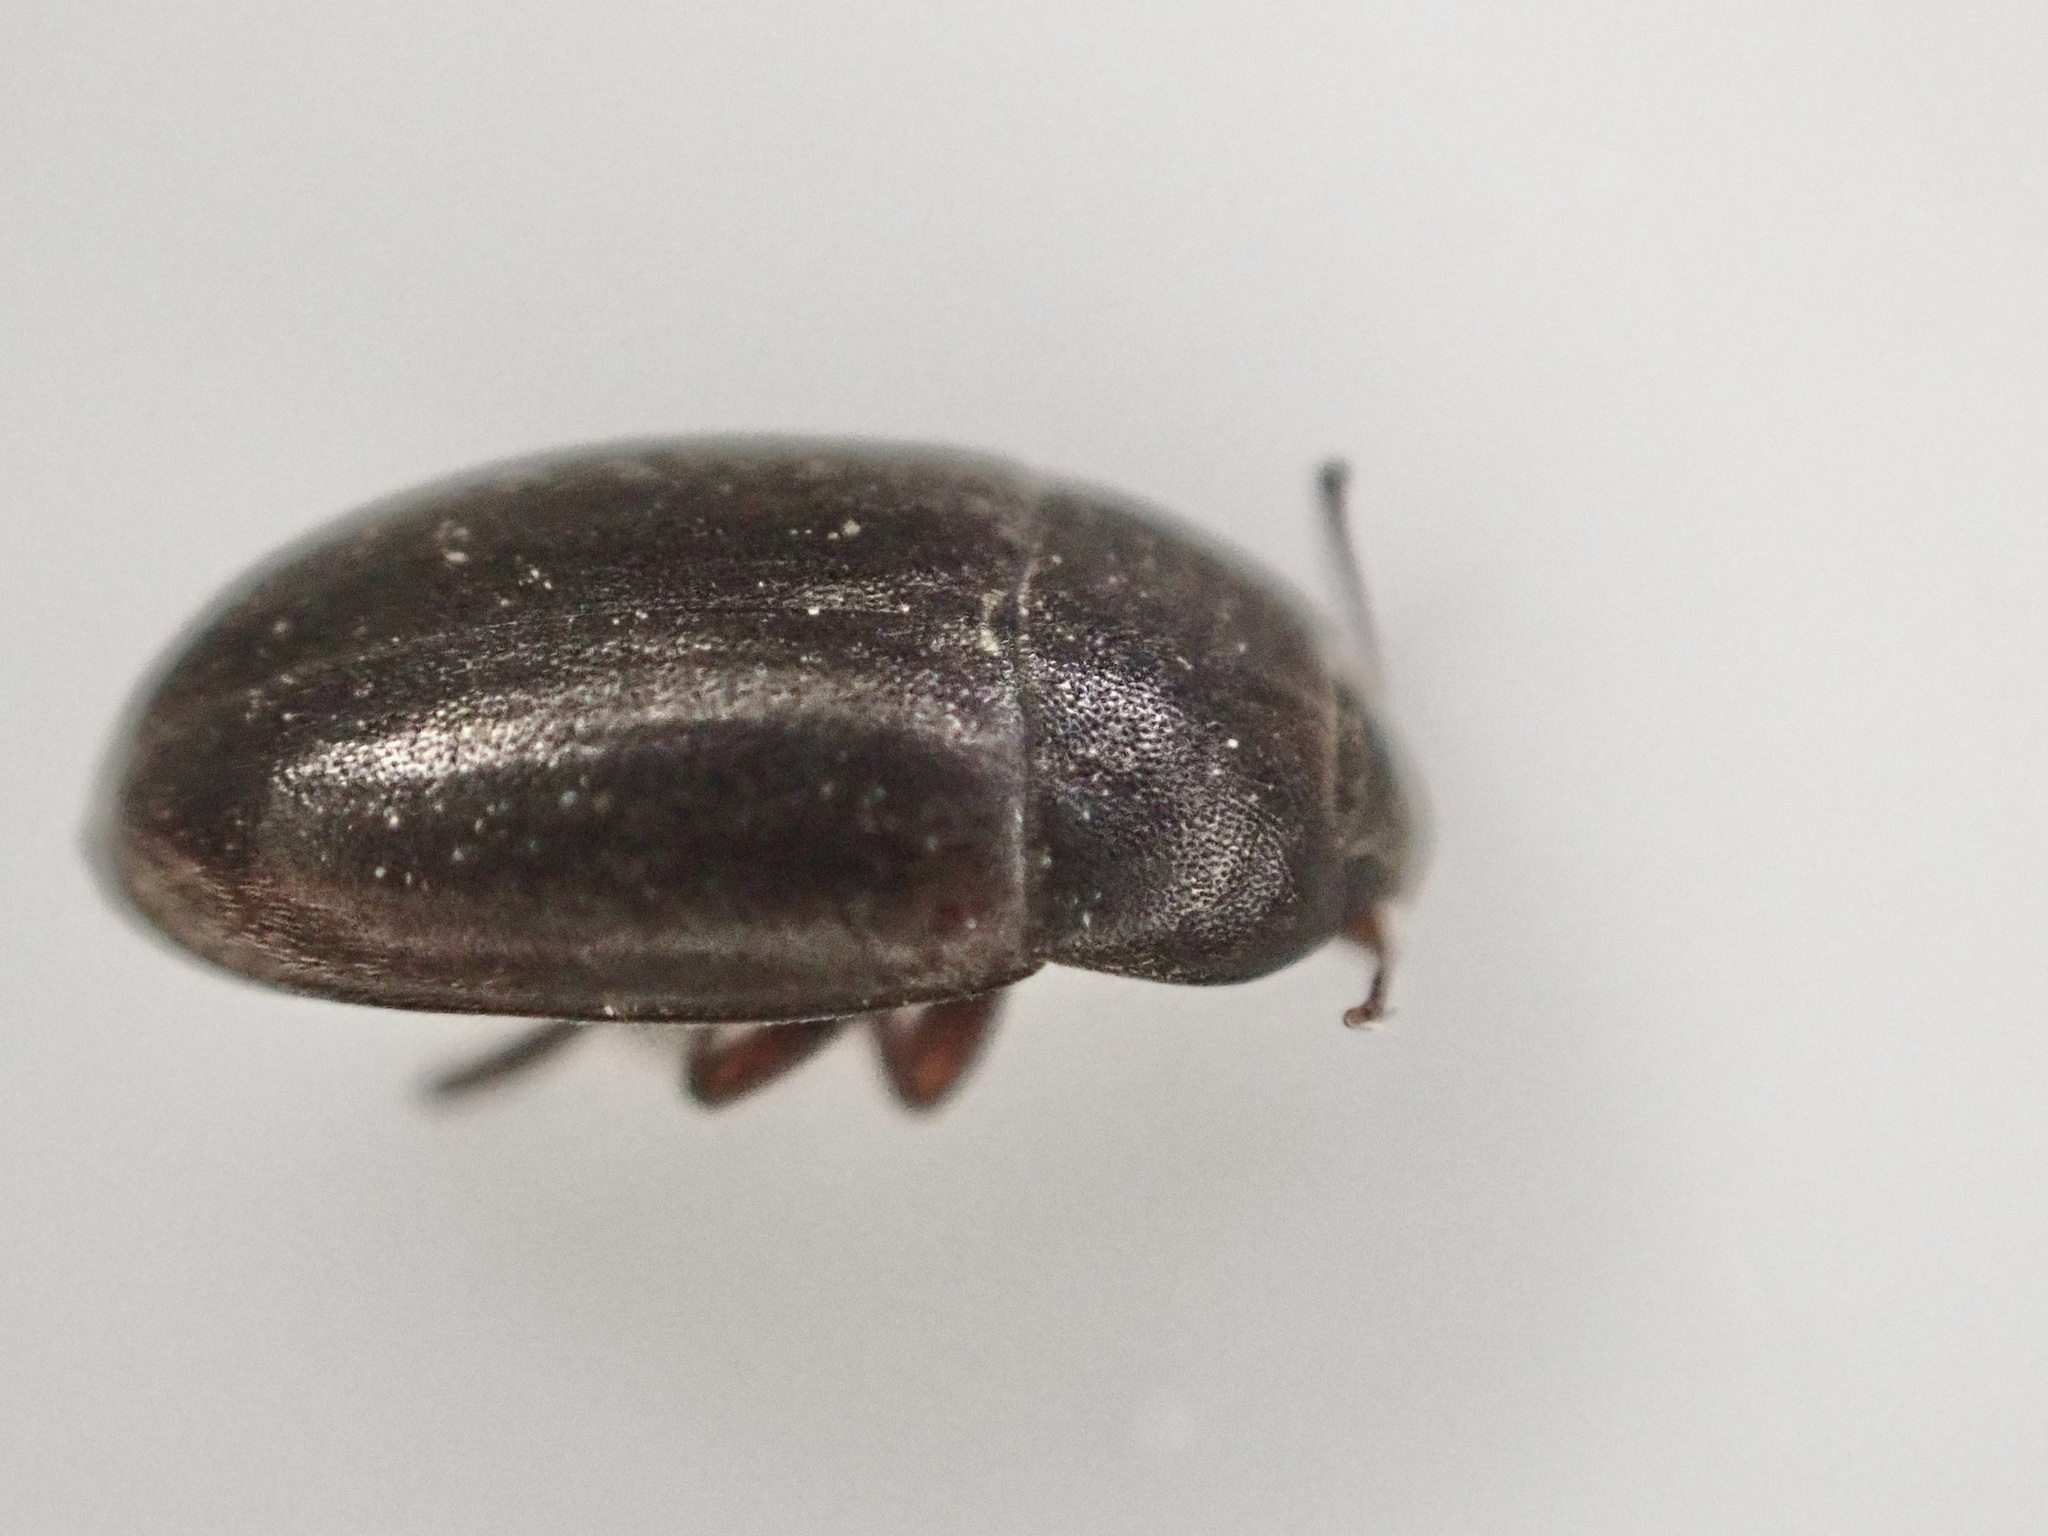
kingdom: Animalia
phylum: Arthropoda
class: Insecta
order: Coleoptera
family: Archeocrypticidae
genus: Enneboeus
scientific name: Enneboeus
